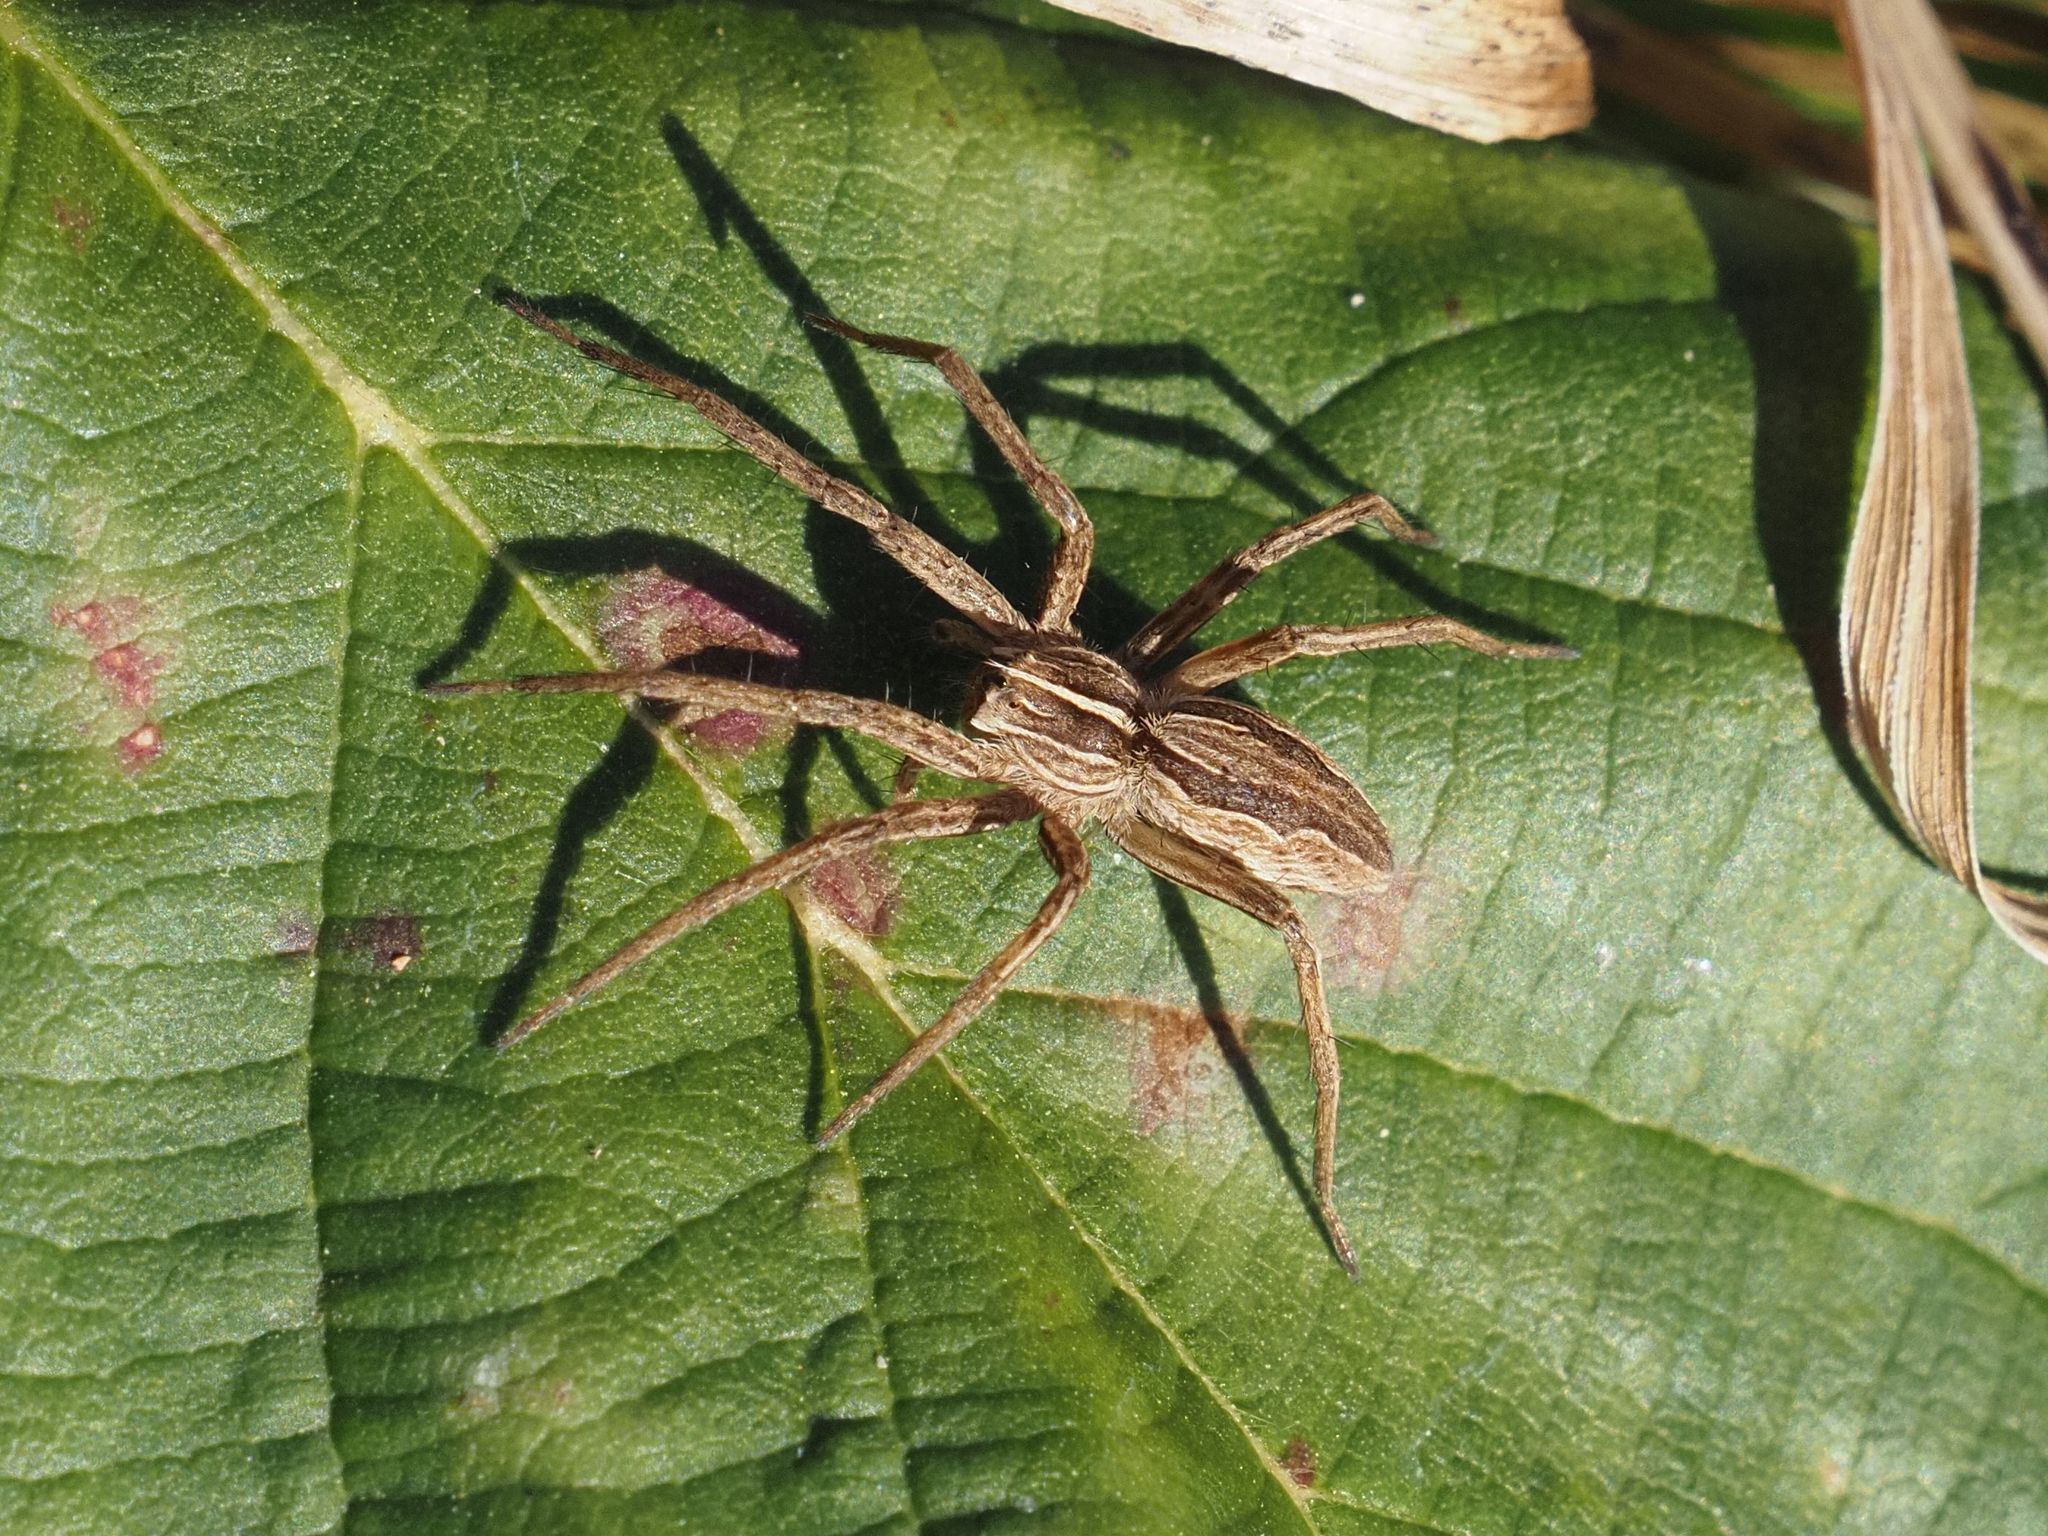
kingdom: Animalia
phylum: Arthropoda
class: Arachnida
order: Araneae
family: Pisauridae
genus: Pisaura
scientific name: Pisaura mirabilis
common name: Tent spider
